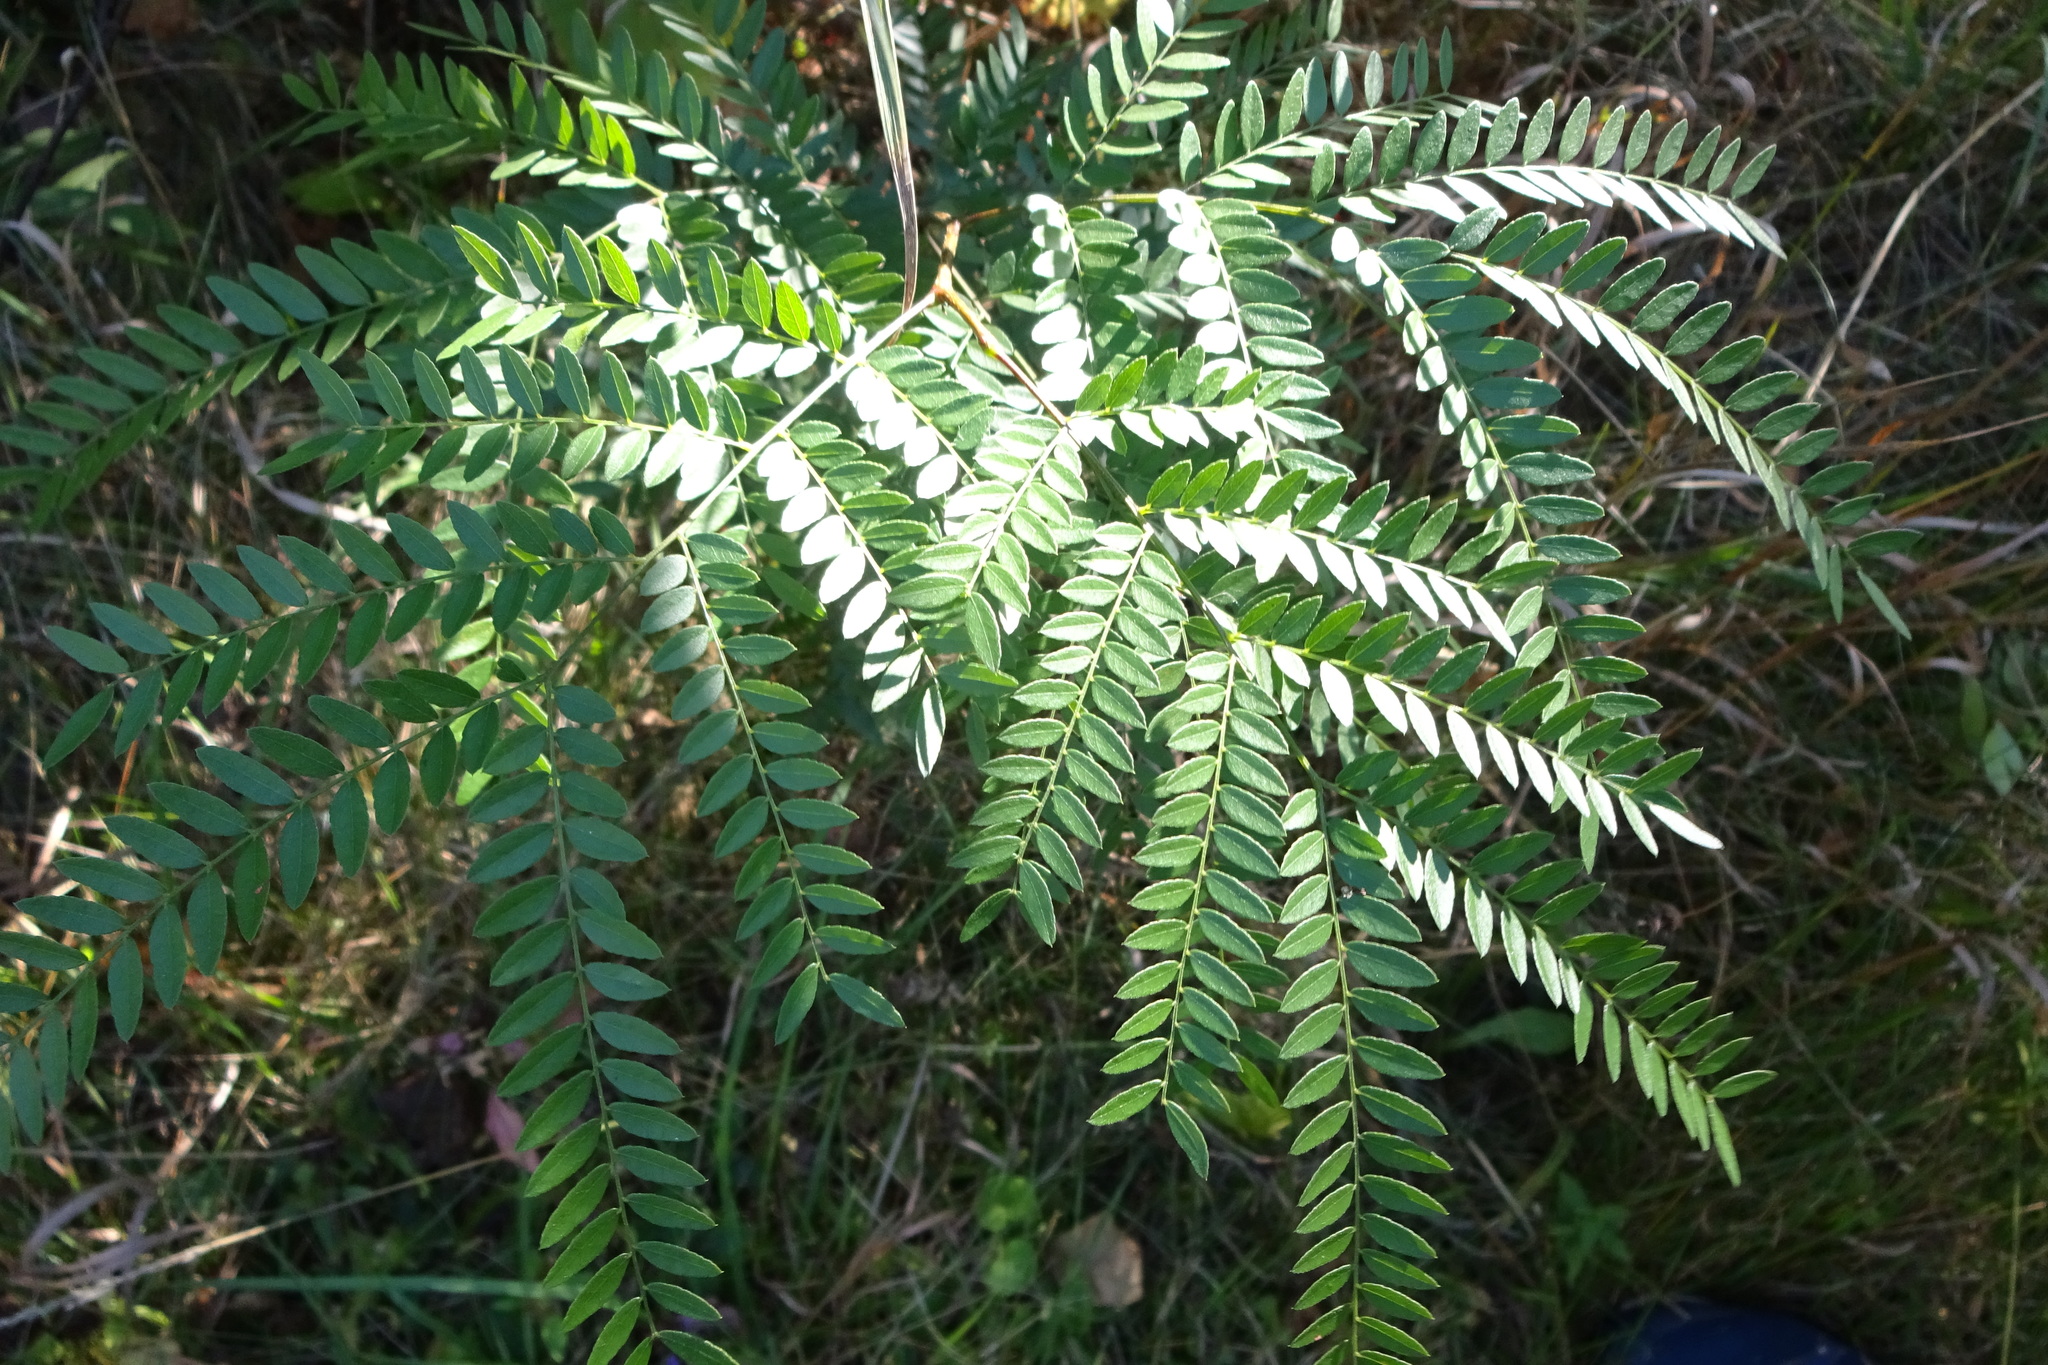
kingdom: Plantae
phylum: Tracheophyta
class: Magnoliopsida
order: Fabales
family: Fabaceae
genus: Gleditsia
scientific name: Gleditsia triacanthos
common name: Common honeylocust
